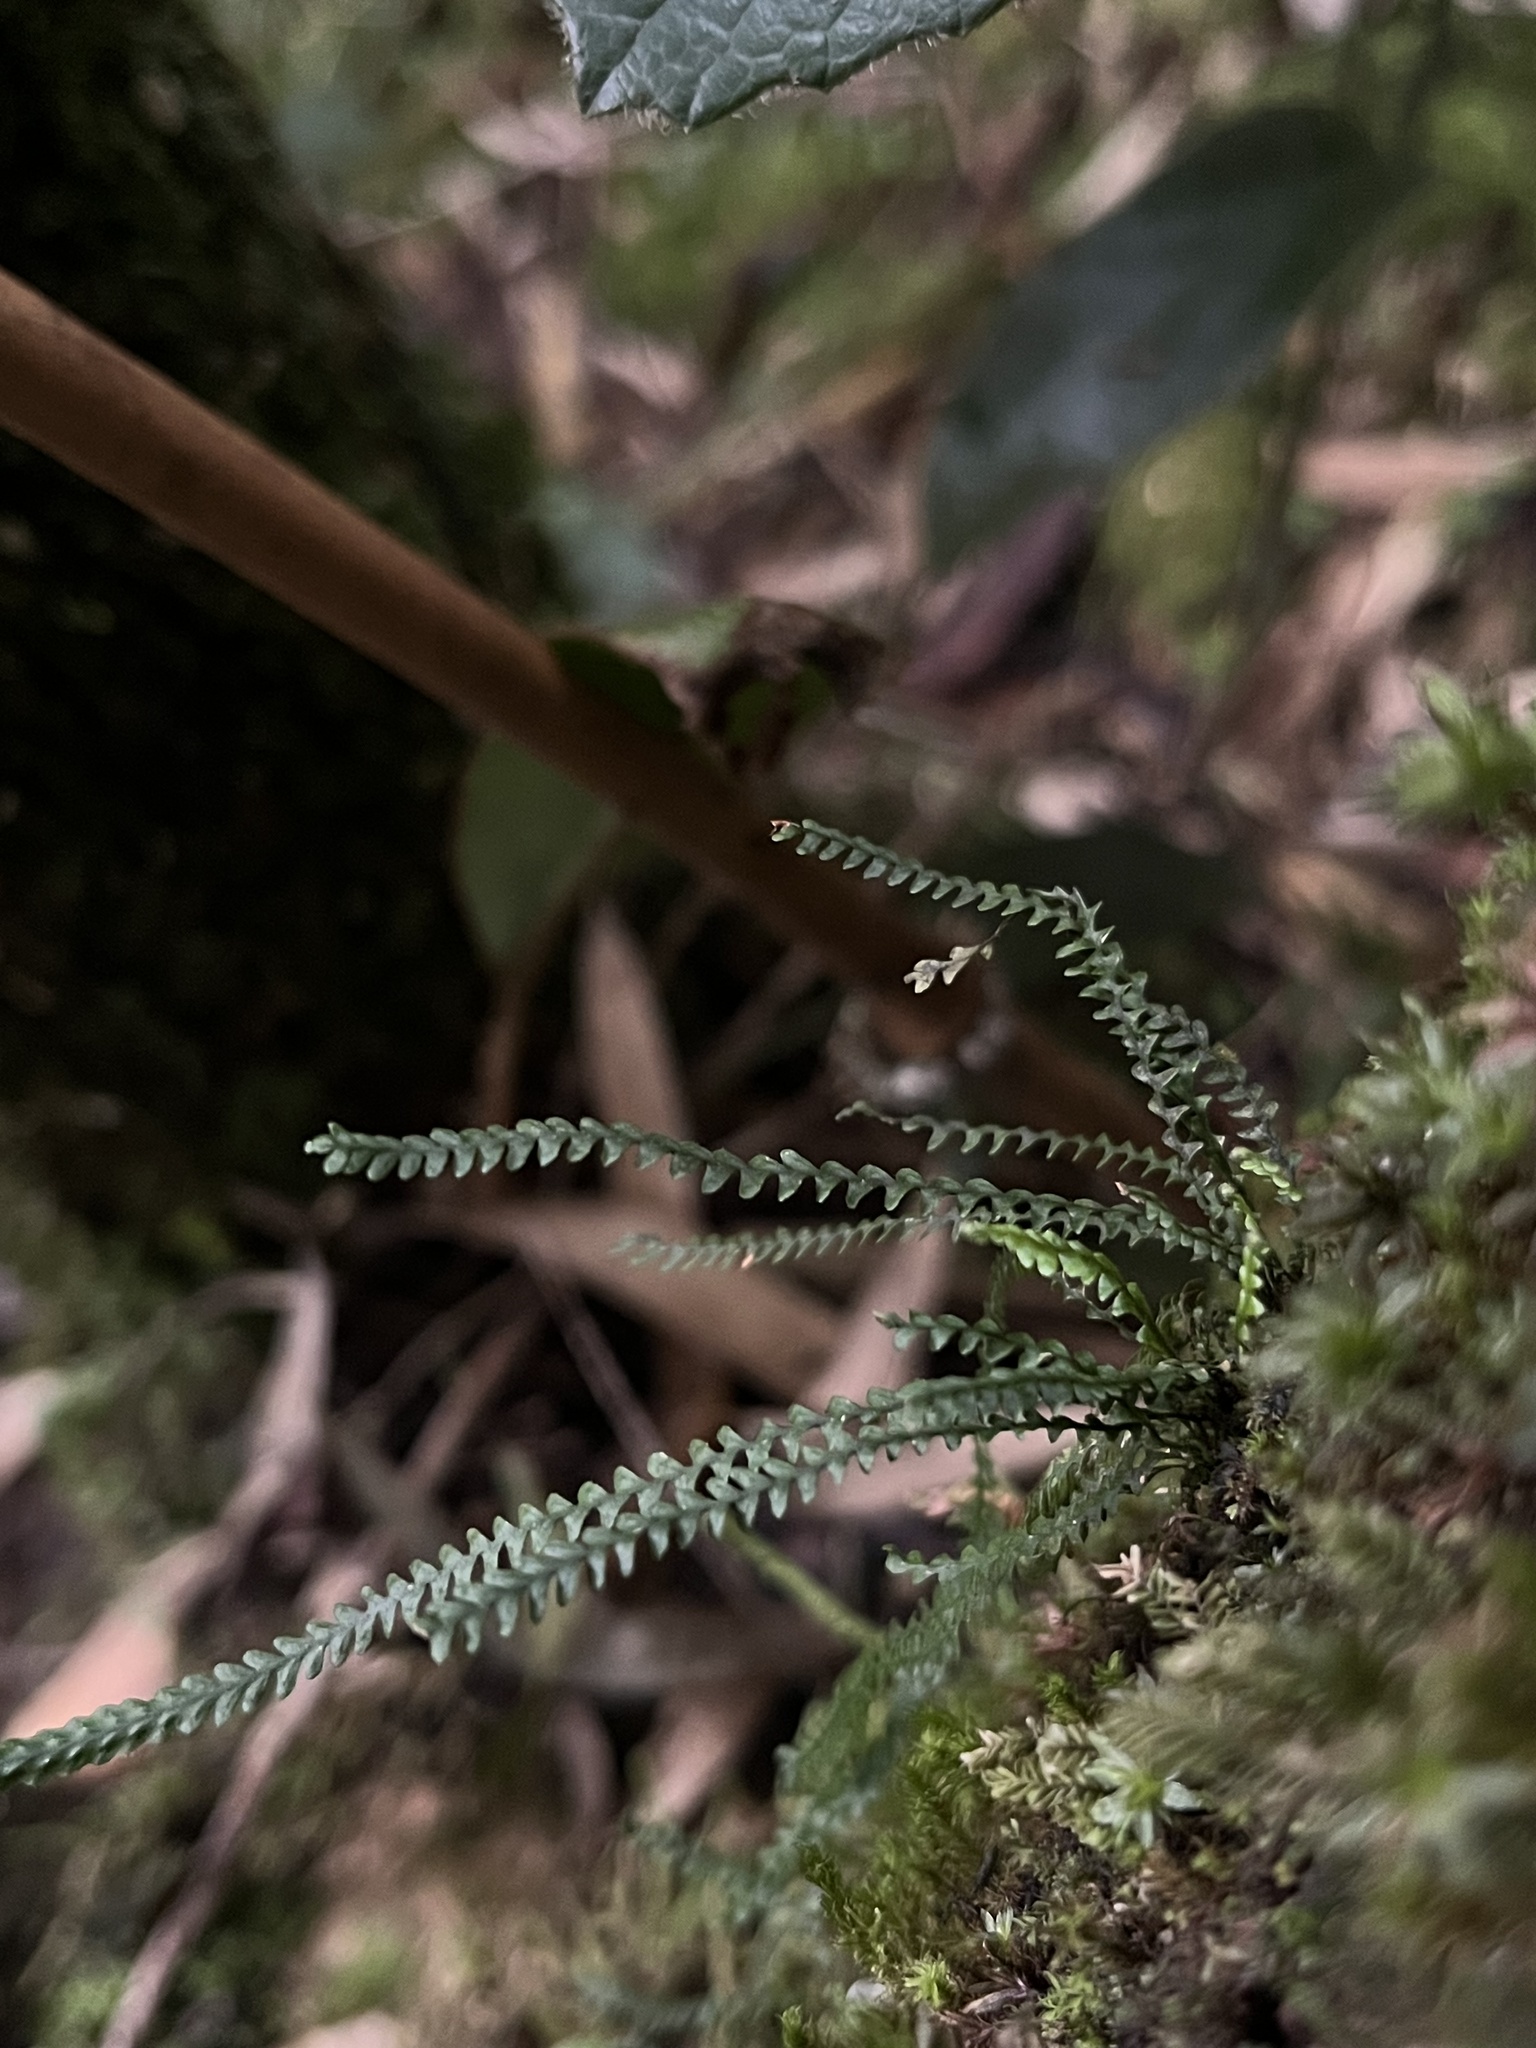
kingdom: Plantae
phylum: Tracheophyta
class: Polypodiopsida
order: Polypodiales
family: Polypodiaceae
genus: Stenogrammitis
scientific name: Stenogrammitis jamesonii
